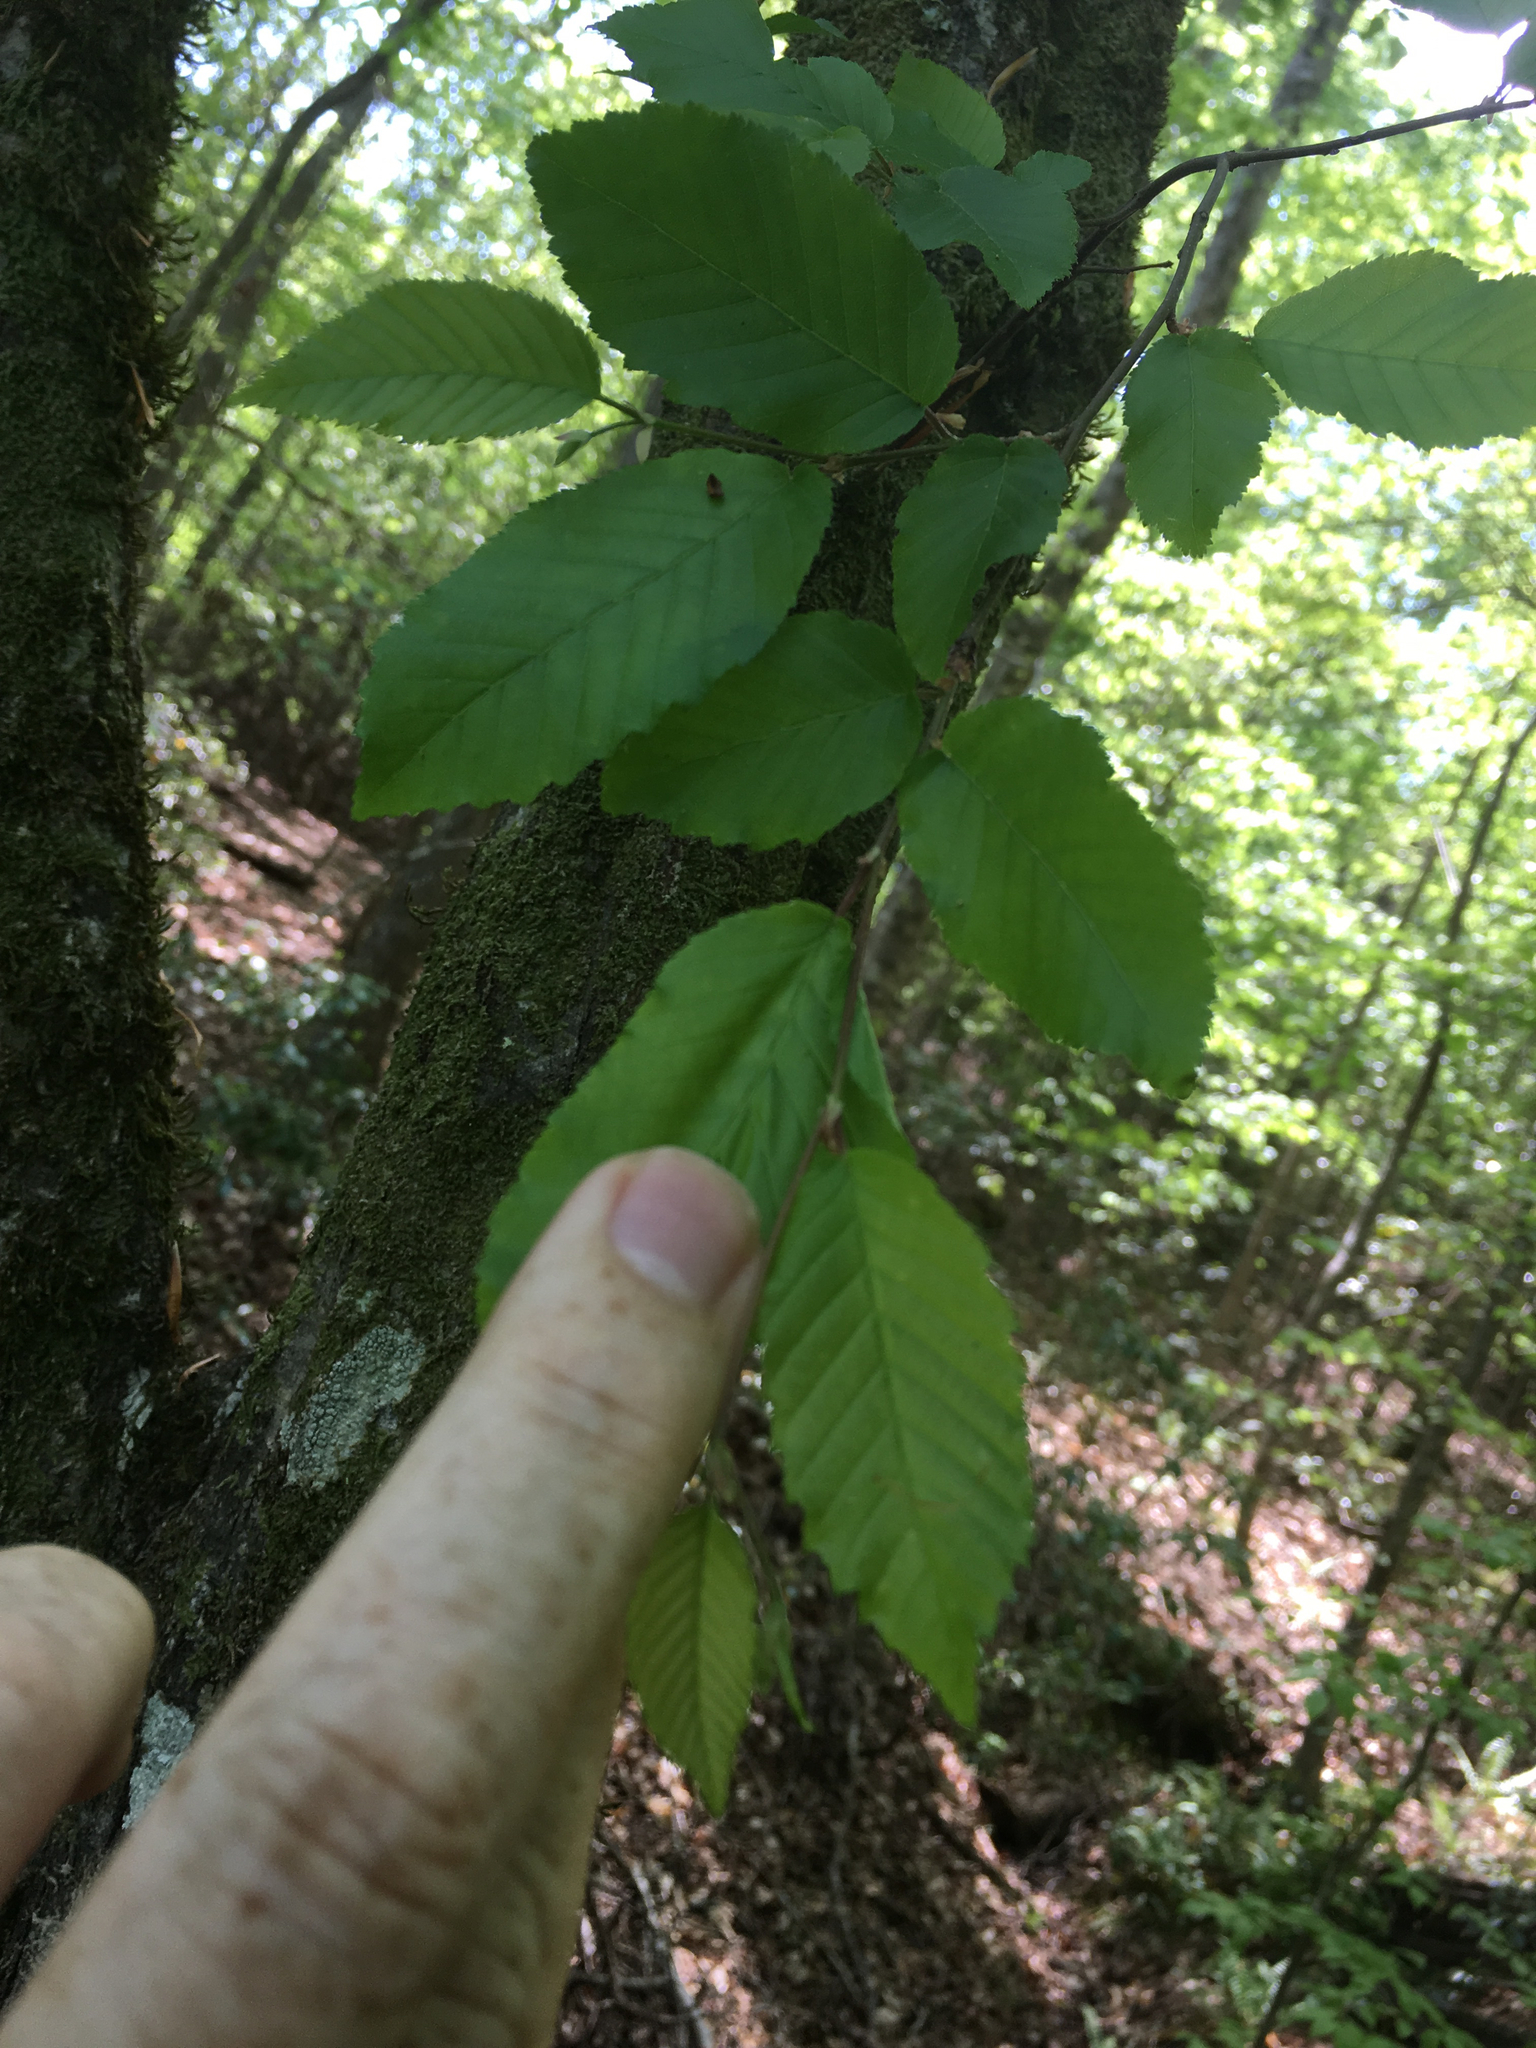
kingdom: Plantae
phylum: Tracheophyta
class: Magnoliopsida
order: Fagales
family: Betulaceae
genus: Carpinus
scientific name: Carpinus caroliniana
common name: American hornbeam
